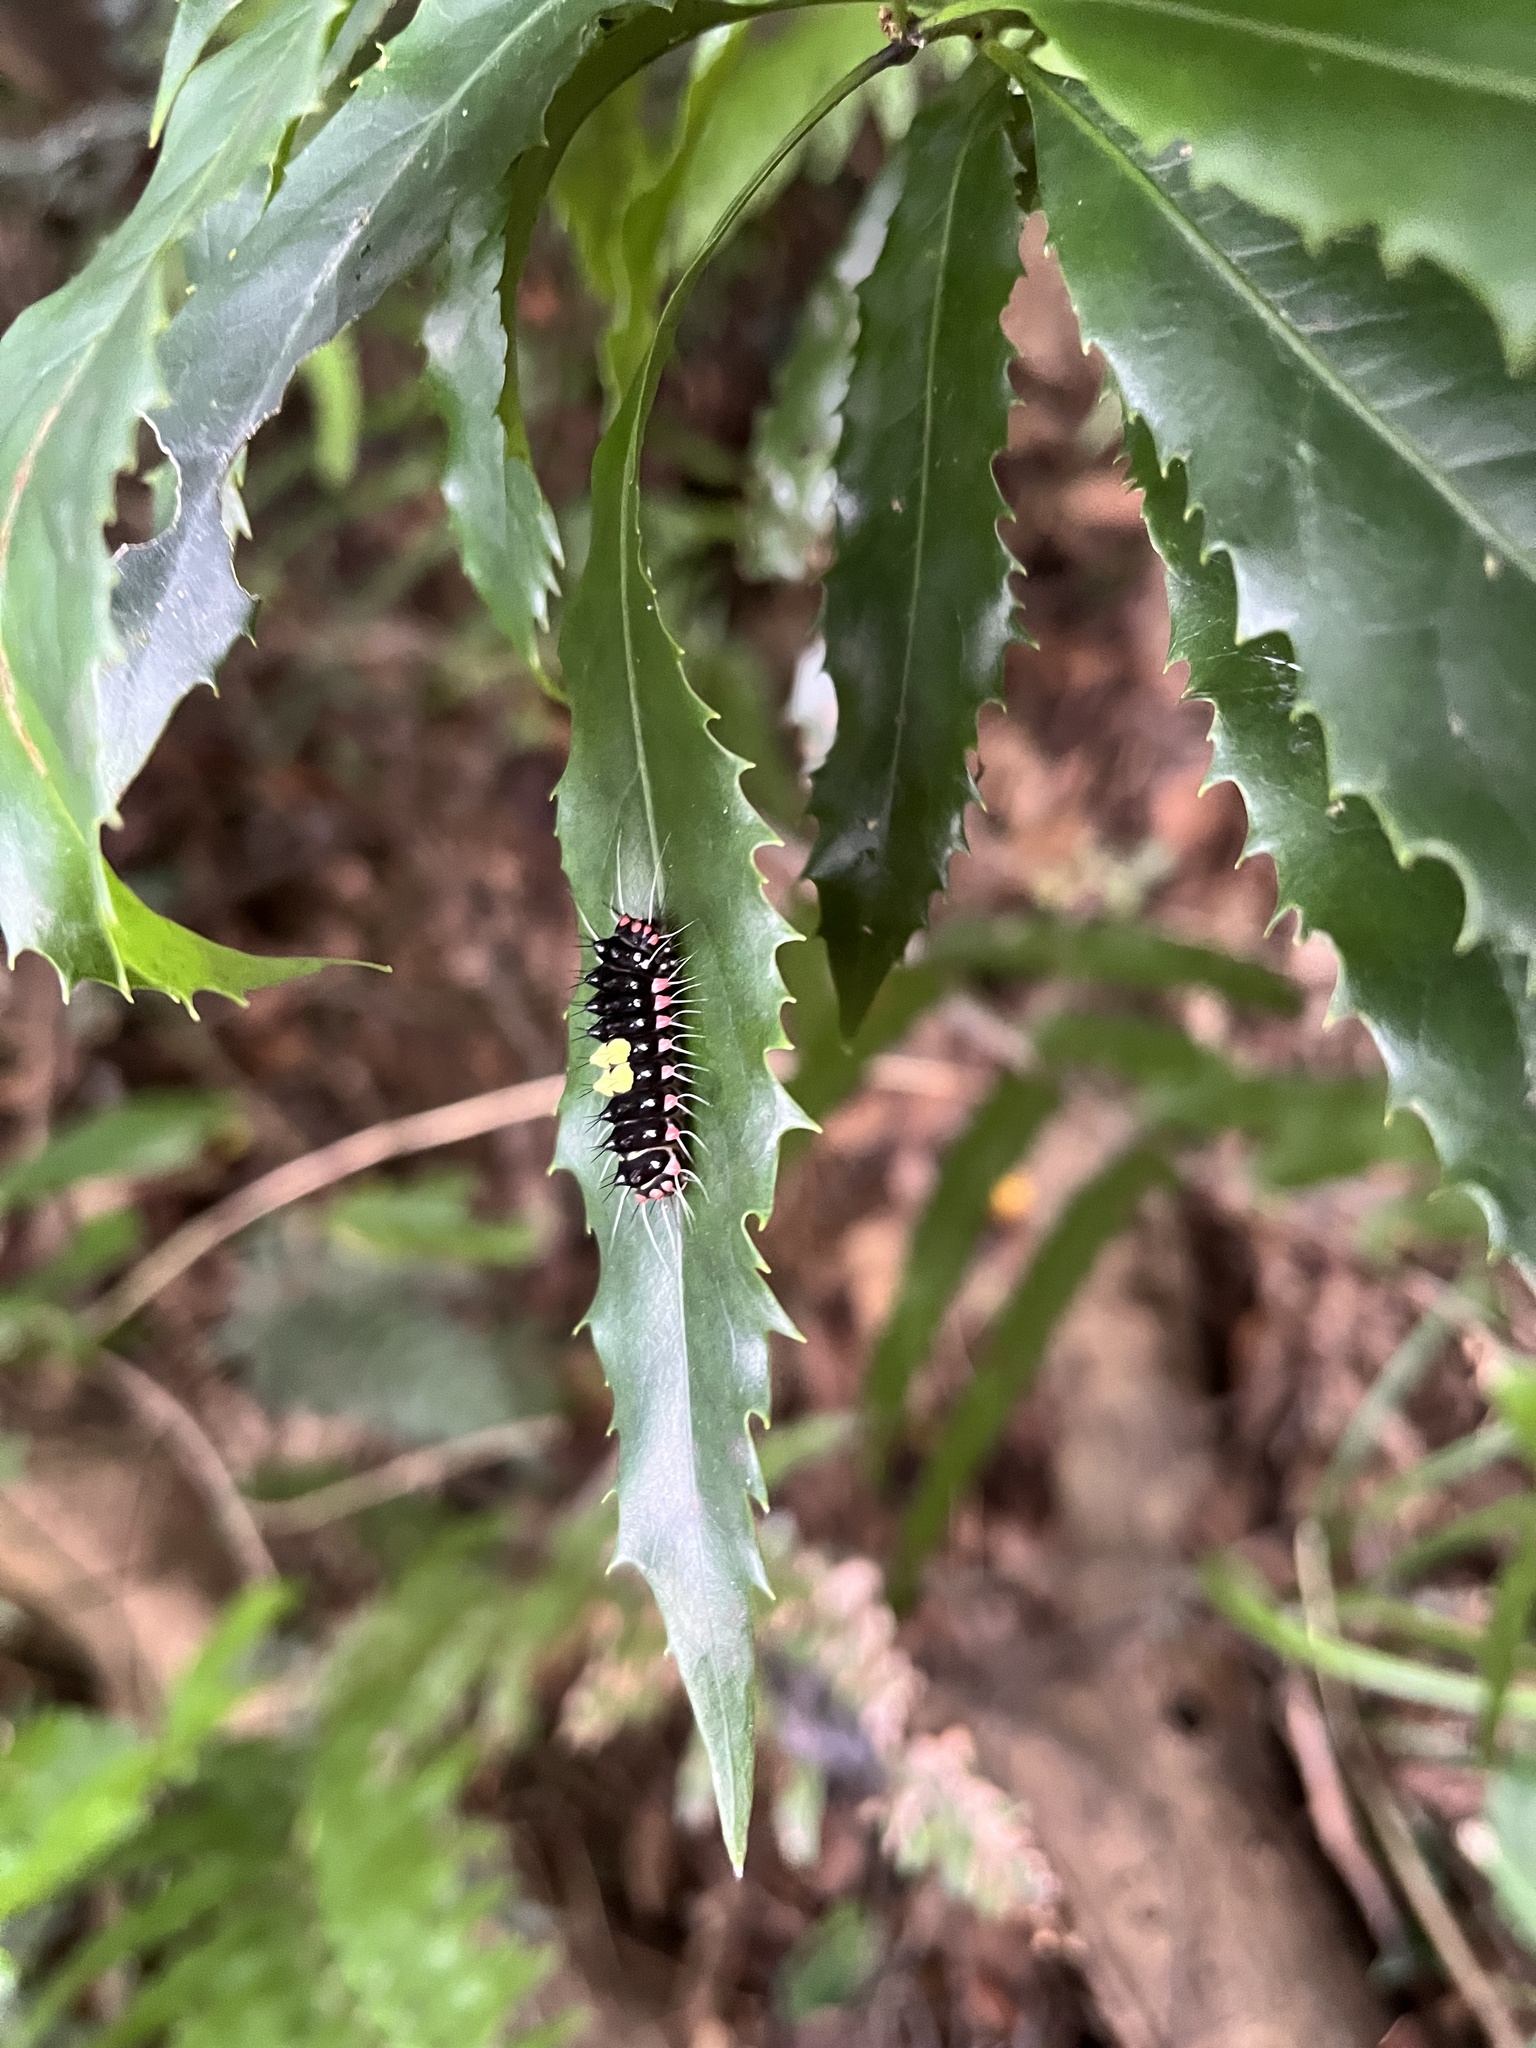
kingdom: Animalia
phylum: Arthropoda
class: Insecta
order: Lepidoptera
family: Zygaenidae
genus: Erasmia
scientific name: Erasmia pulchella
